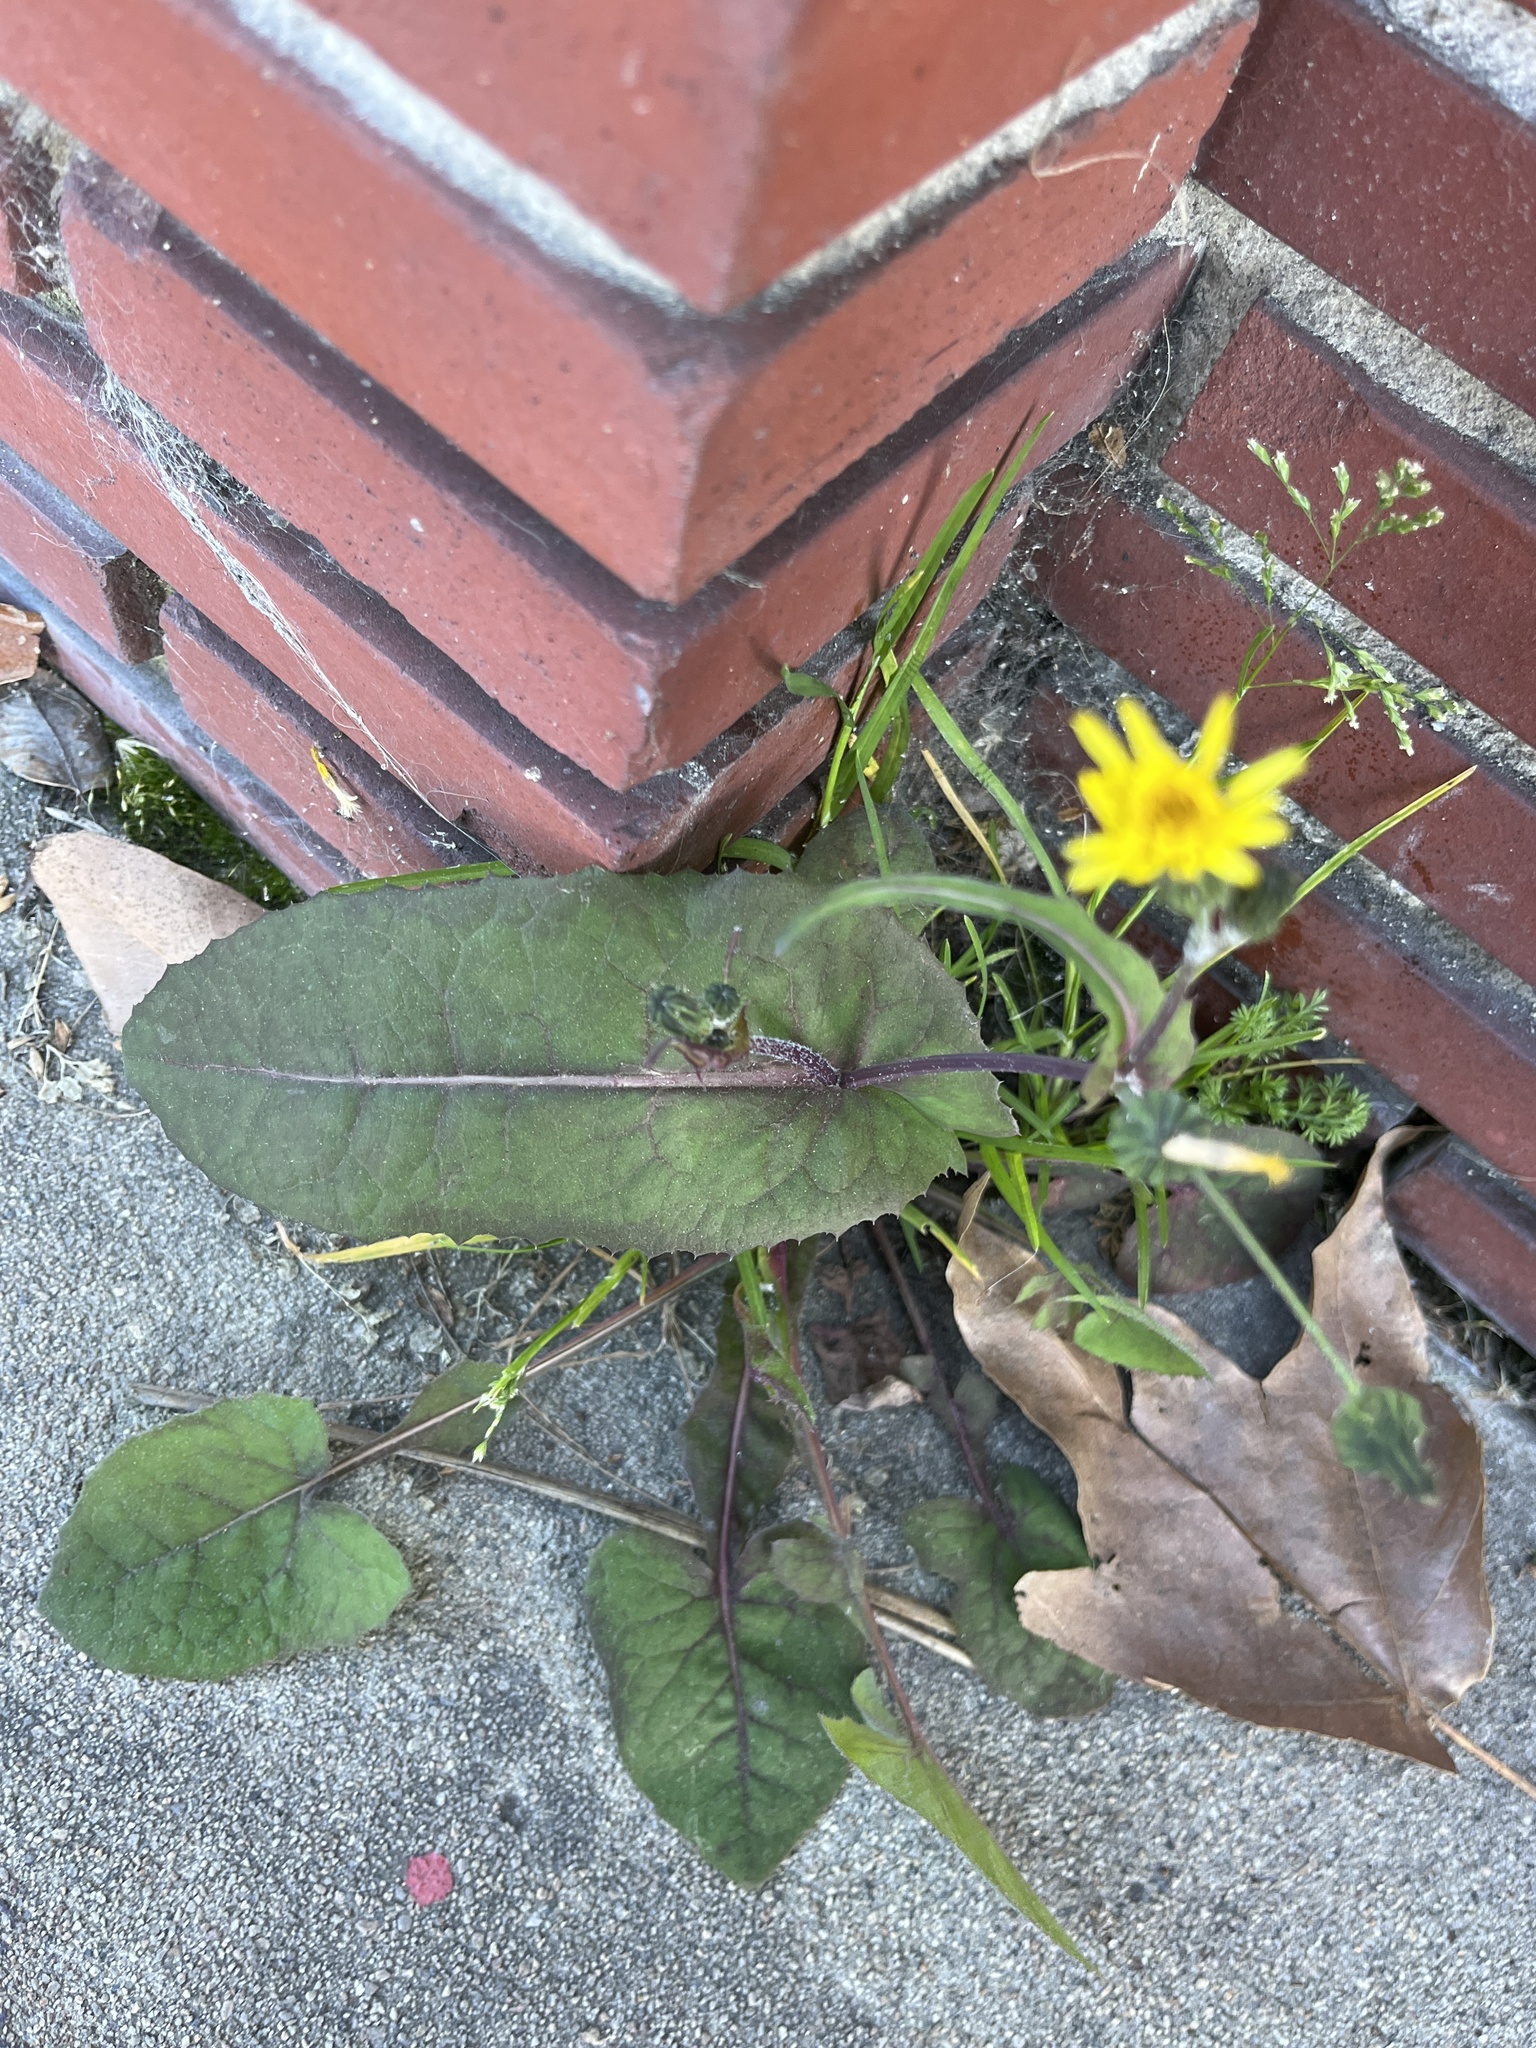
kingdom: Plantae
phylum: Tracheophyta
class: Magnoliopsida
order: Asterales
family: Asteraceae
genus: Sonchus
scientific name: Sonchus oleraceus
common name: Common sowthistle
